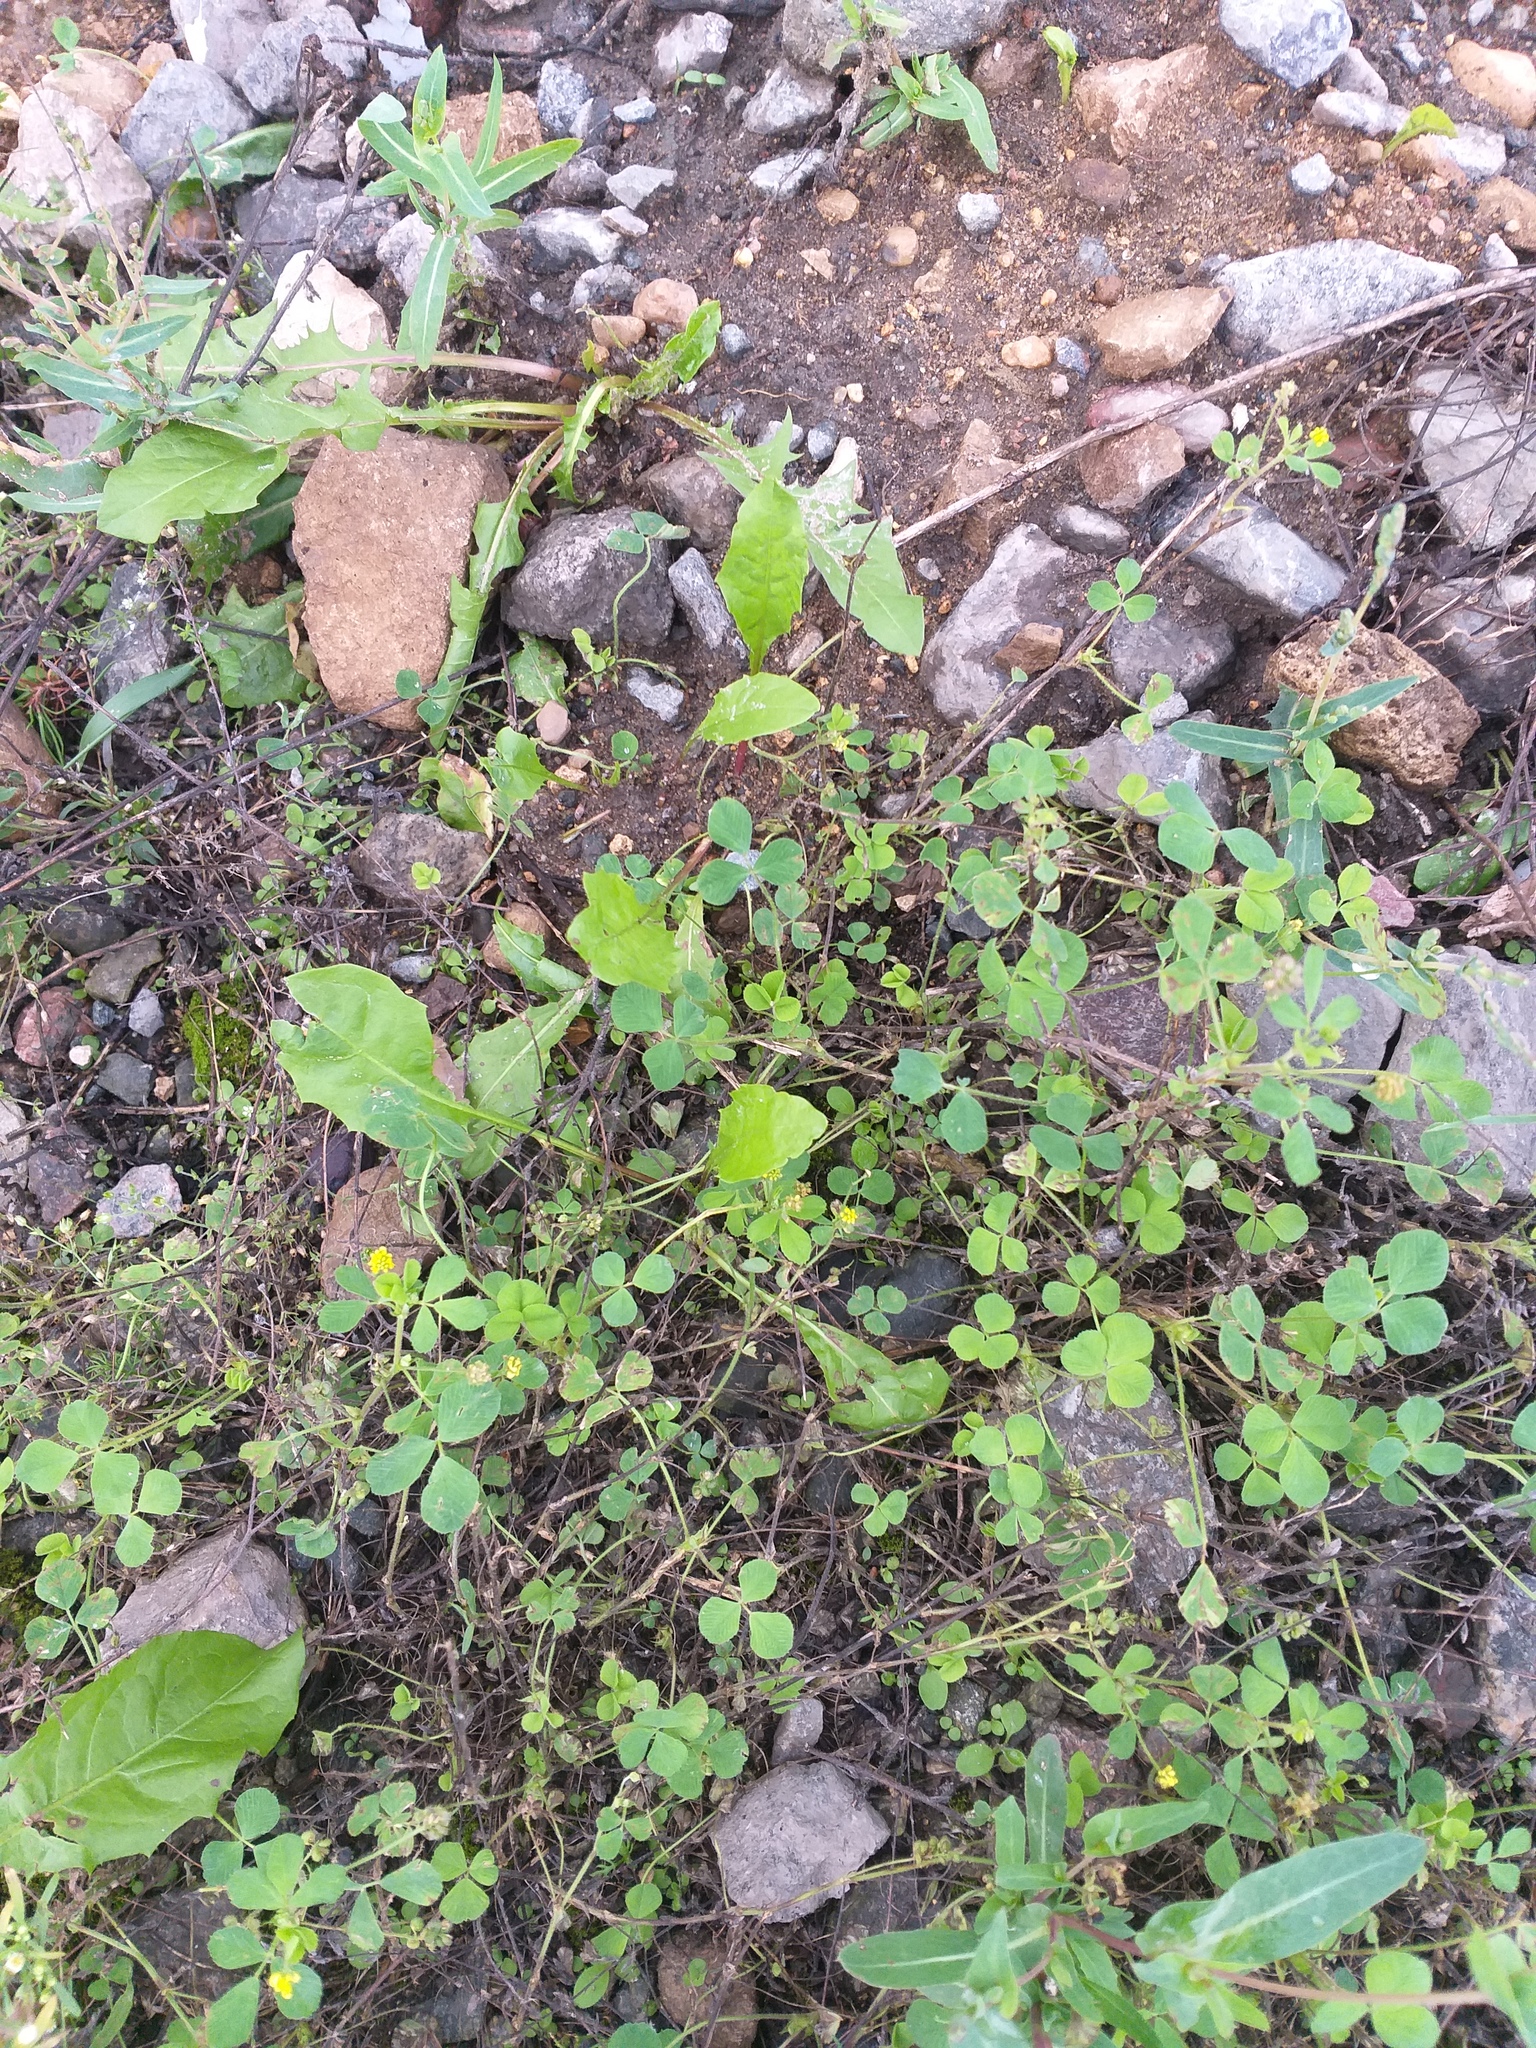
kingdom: Plantae
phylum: Tracheophyta
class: Magnoliopsida
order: Fabales
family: Fabaceae
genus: Medicago
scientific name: Medicago lupulina
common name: Black medick
